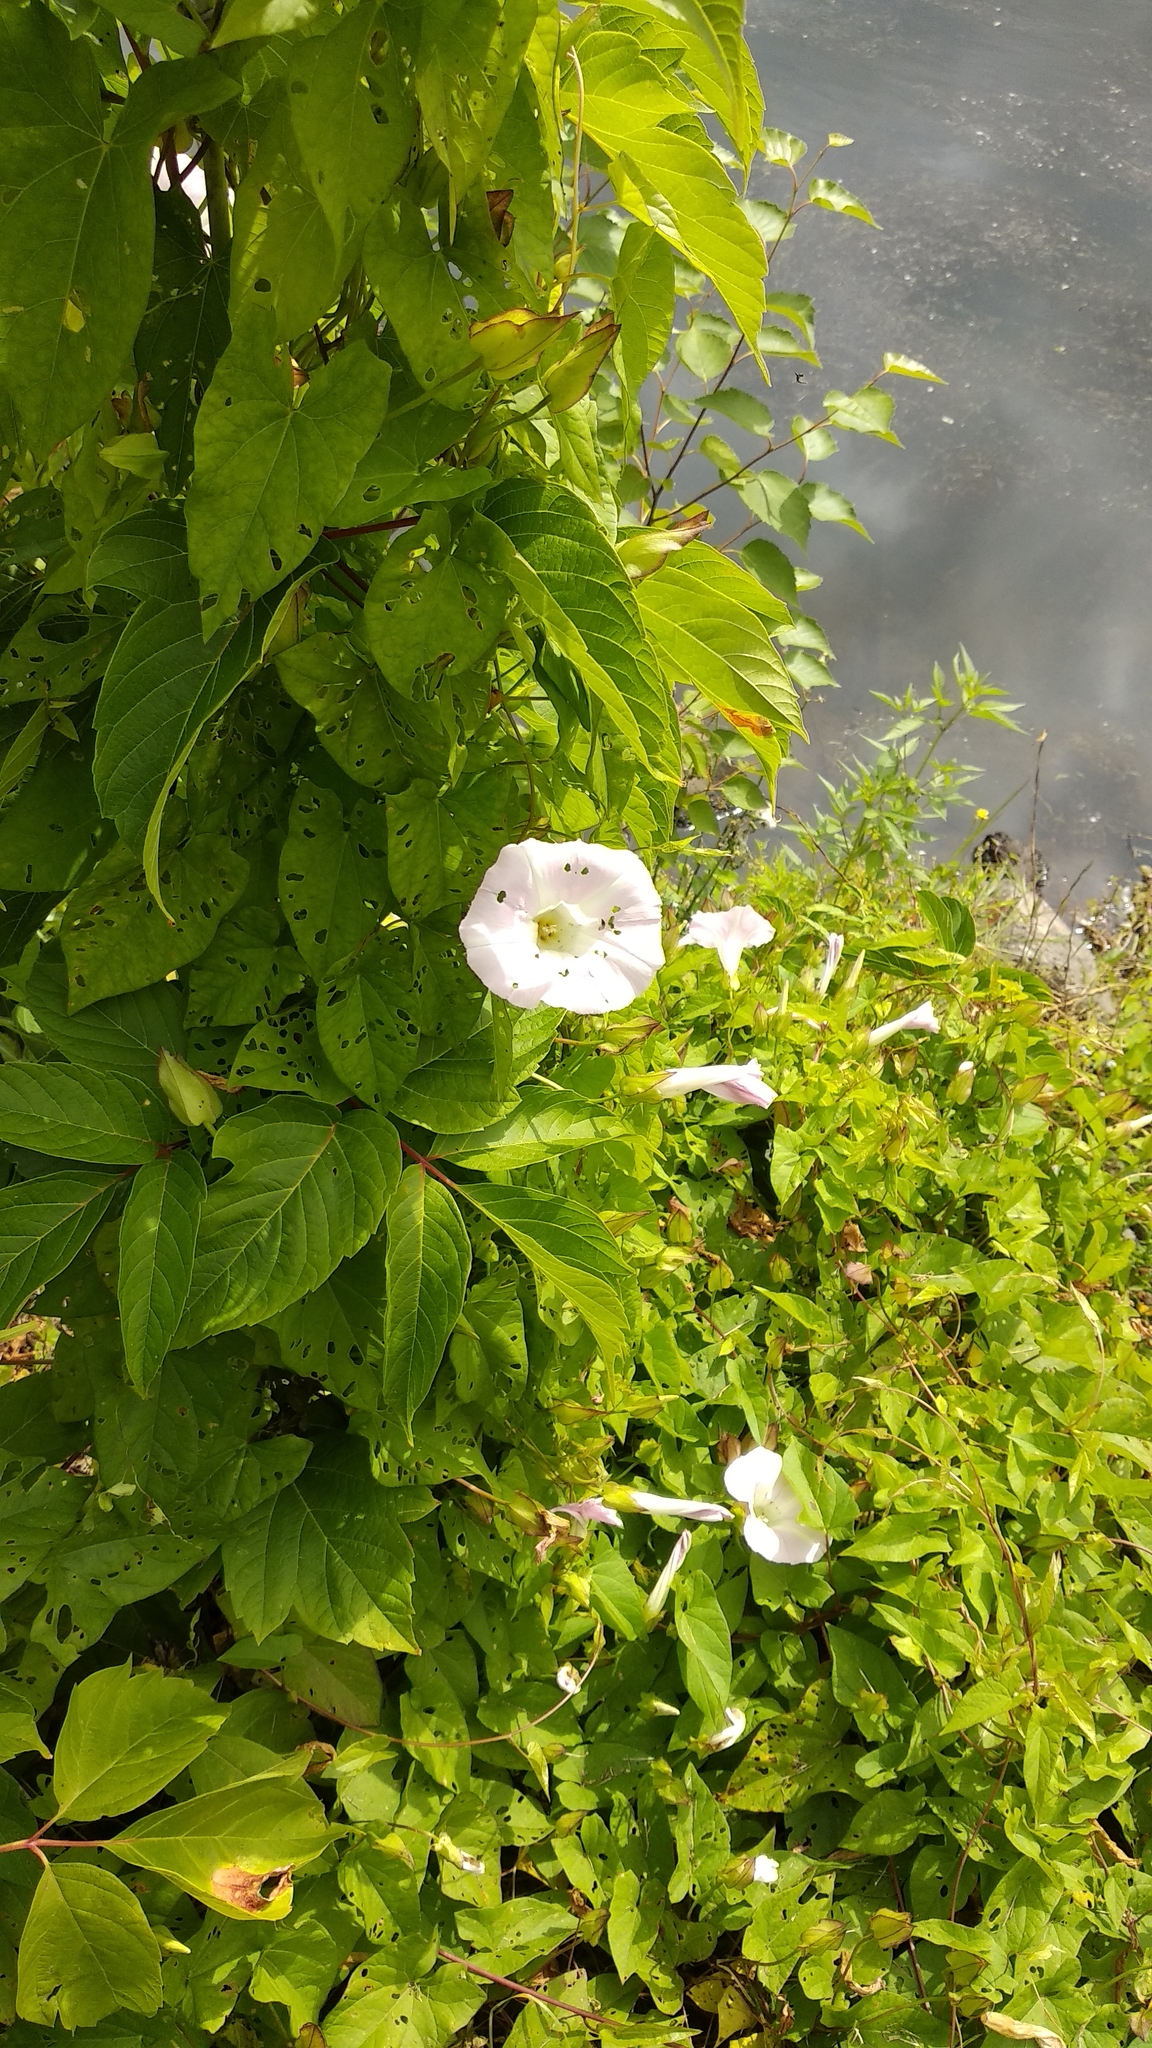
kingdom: Plantae
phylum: Tracheophyta
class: Magnoliopsida
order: Solanales
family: Convolvulaceae
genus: Calystegia
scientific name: Calystegia sepium
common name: Hedge bindweed
